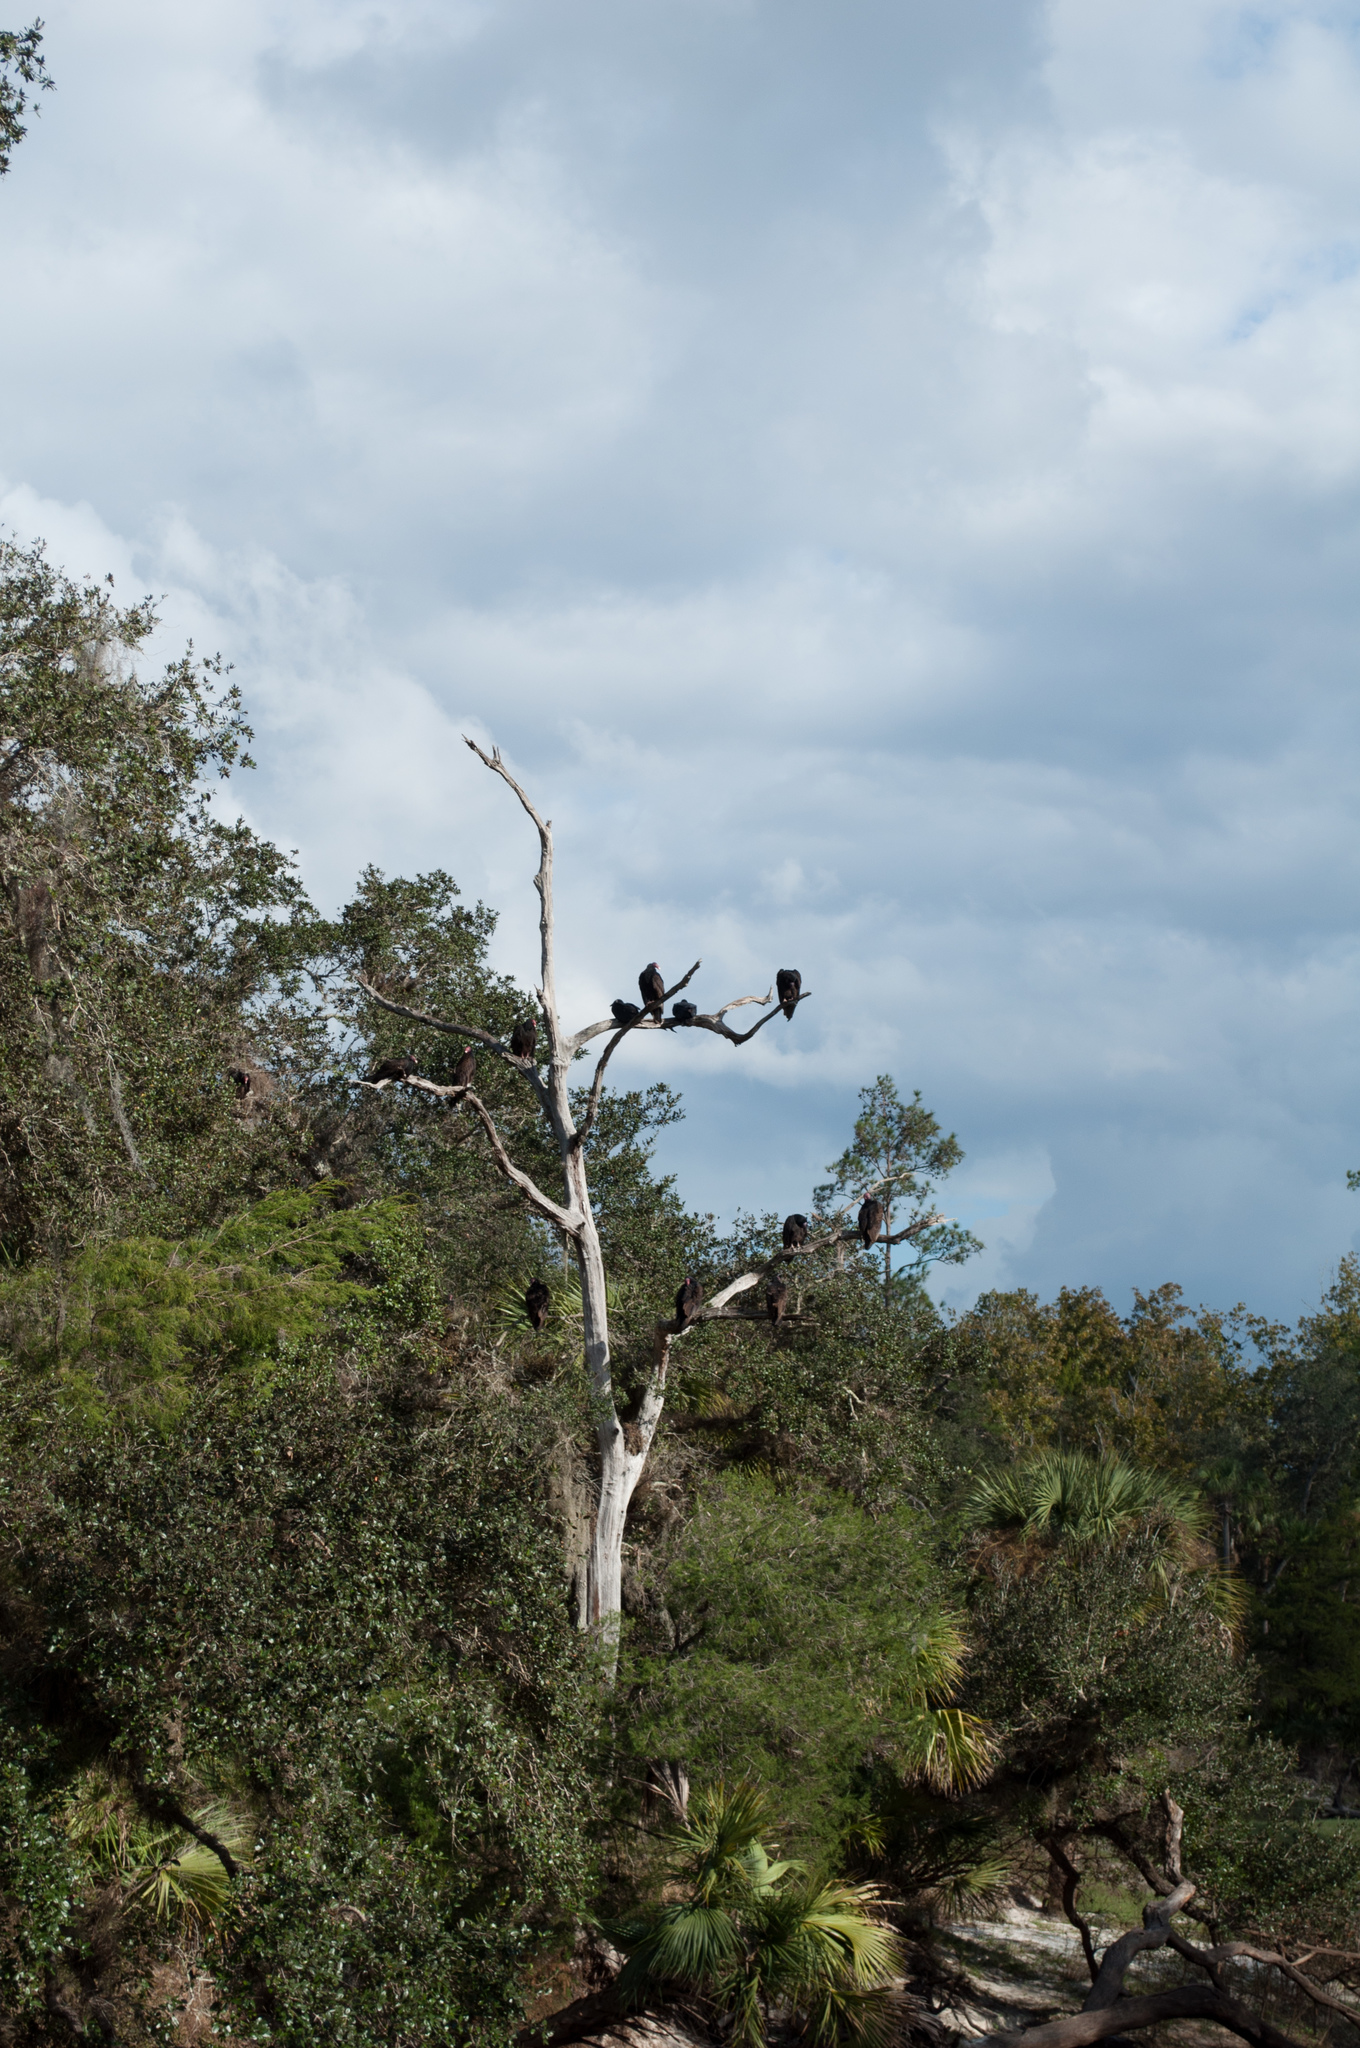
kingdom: Animalia
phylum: Chordata
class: Aves
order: Accipitriformes
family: Cathartidae
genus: Cathartes
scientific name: Cathartes aura
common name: Turkey vulture
